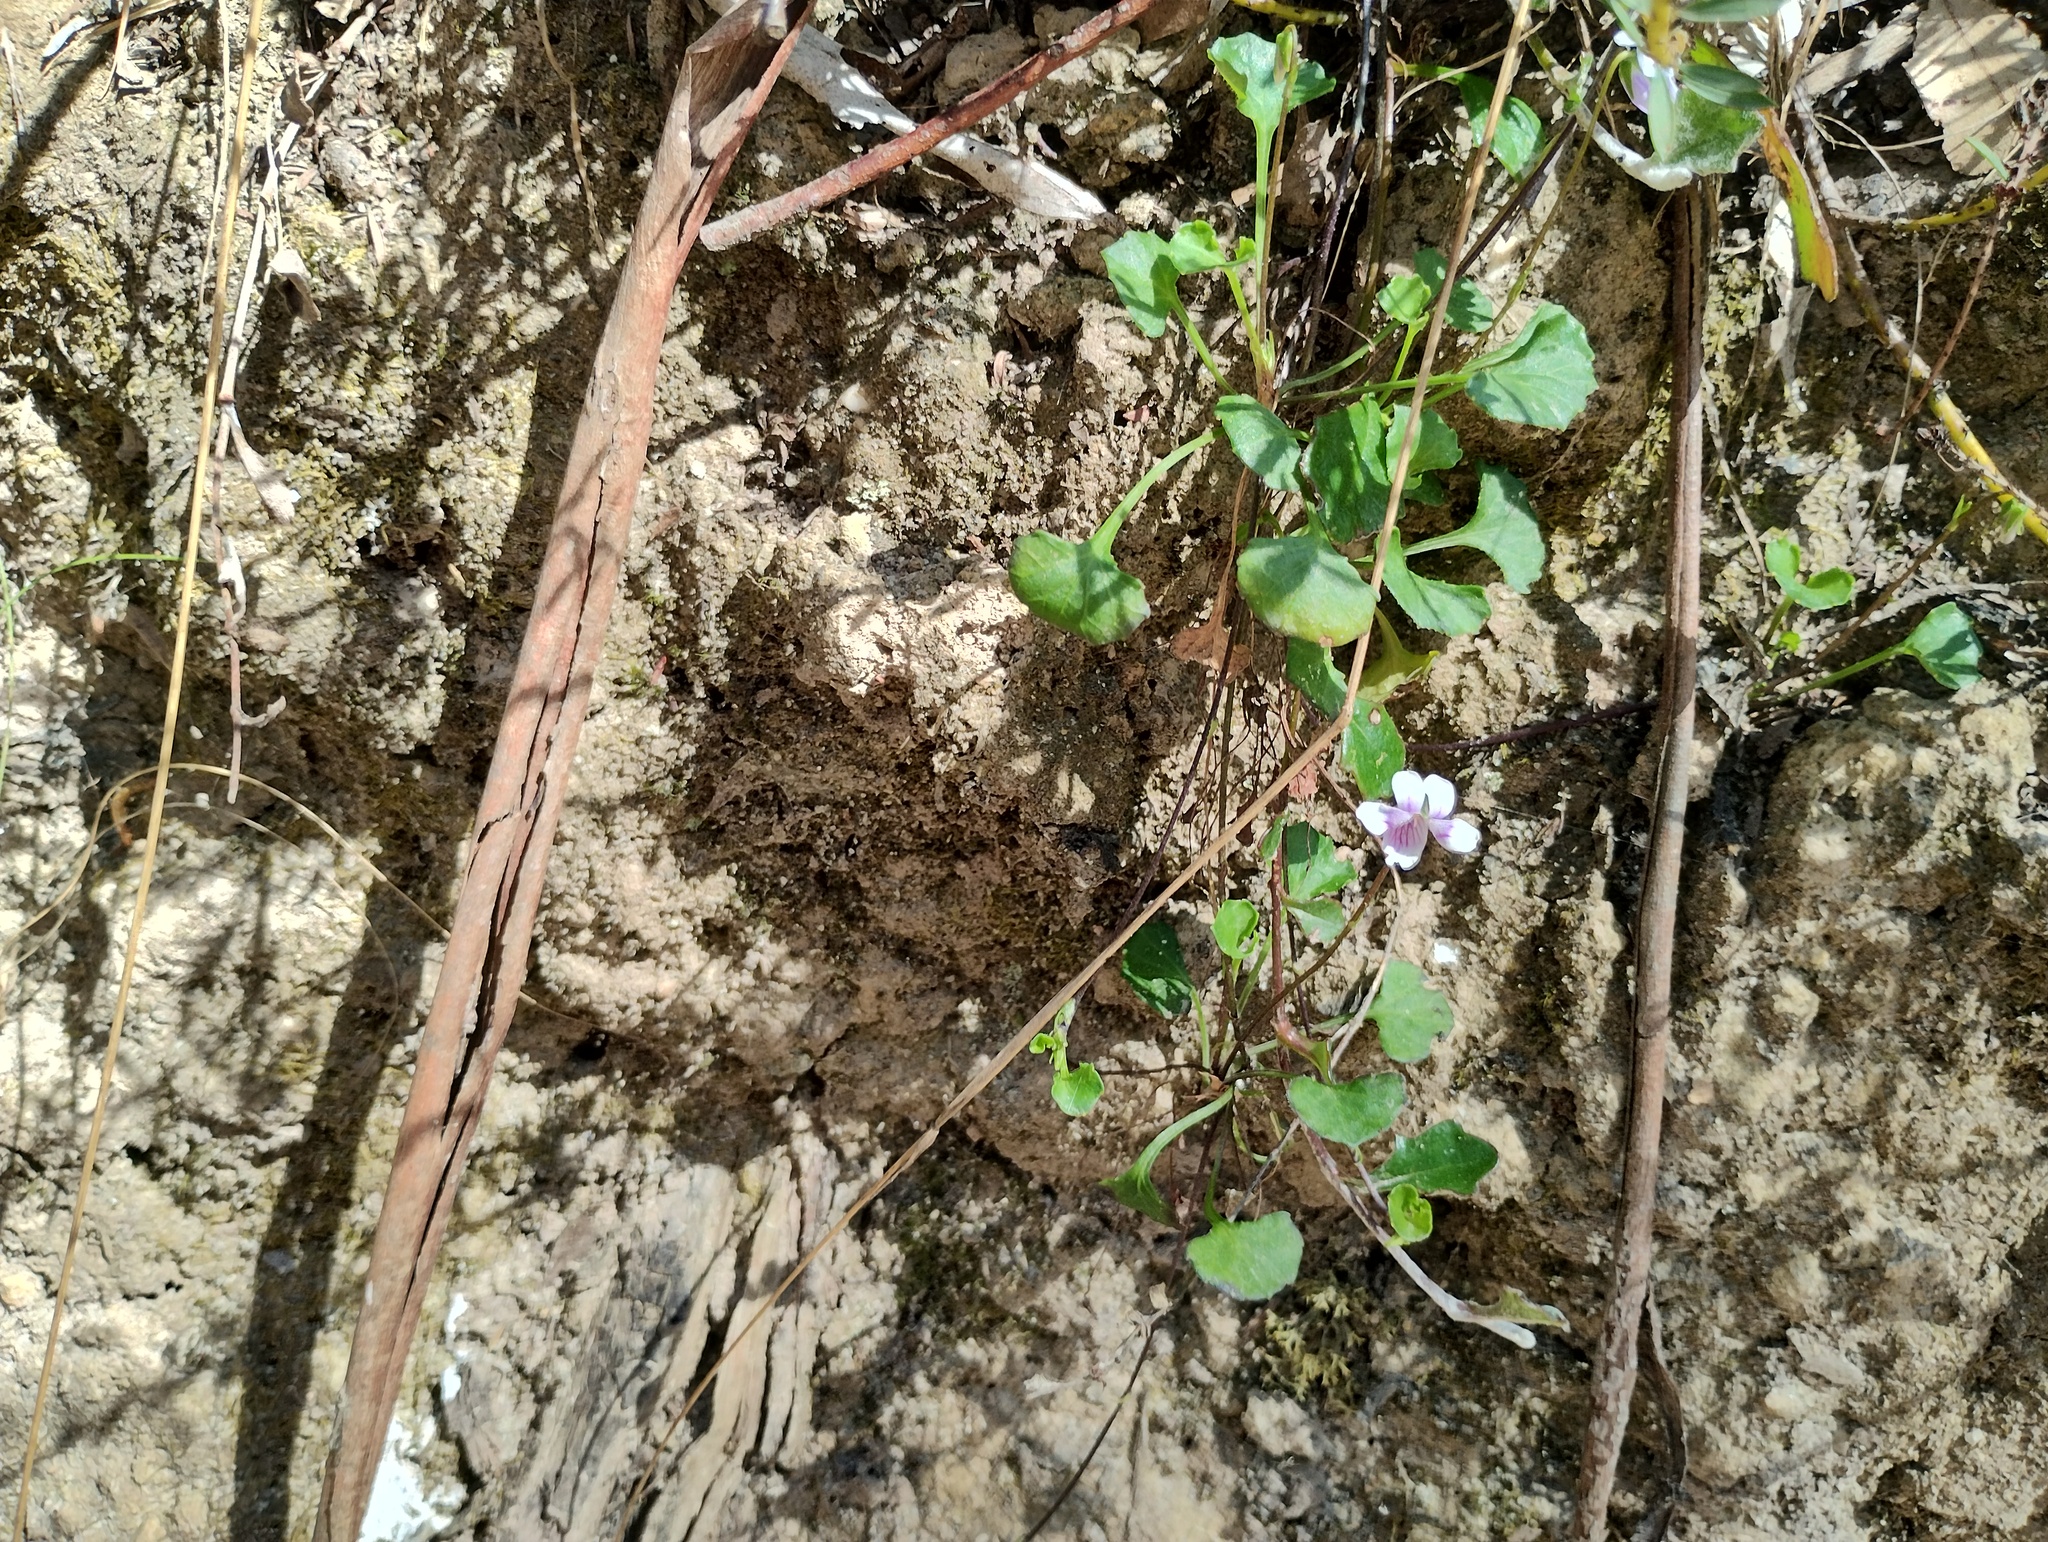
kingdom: Plantae
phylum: Tracheophyta
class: Magnoliopsida
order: Malpighiales
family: Violaceae
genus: Viola
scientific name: Viola hederacea
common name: Australian violet
